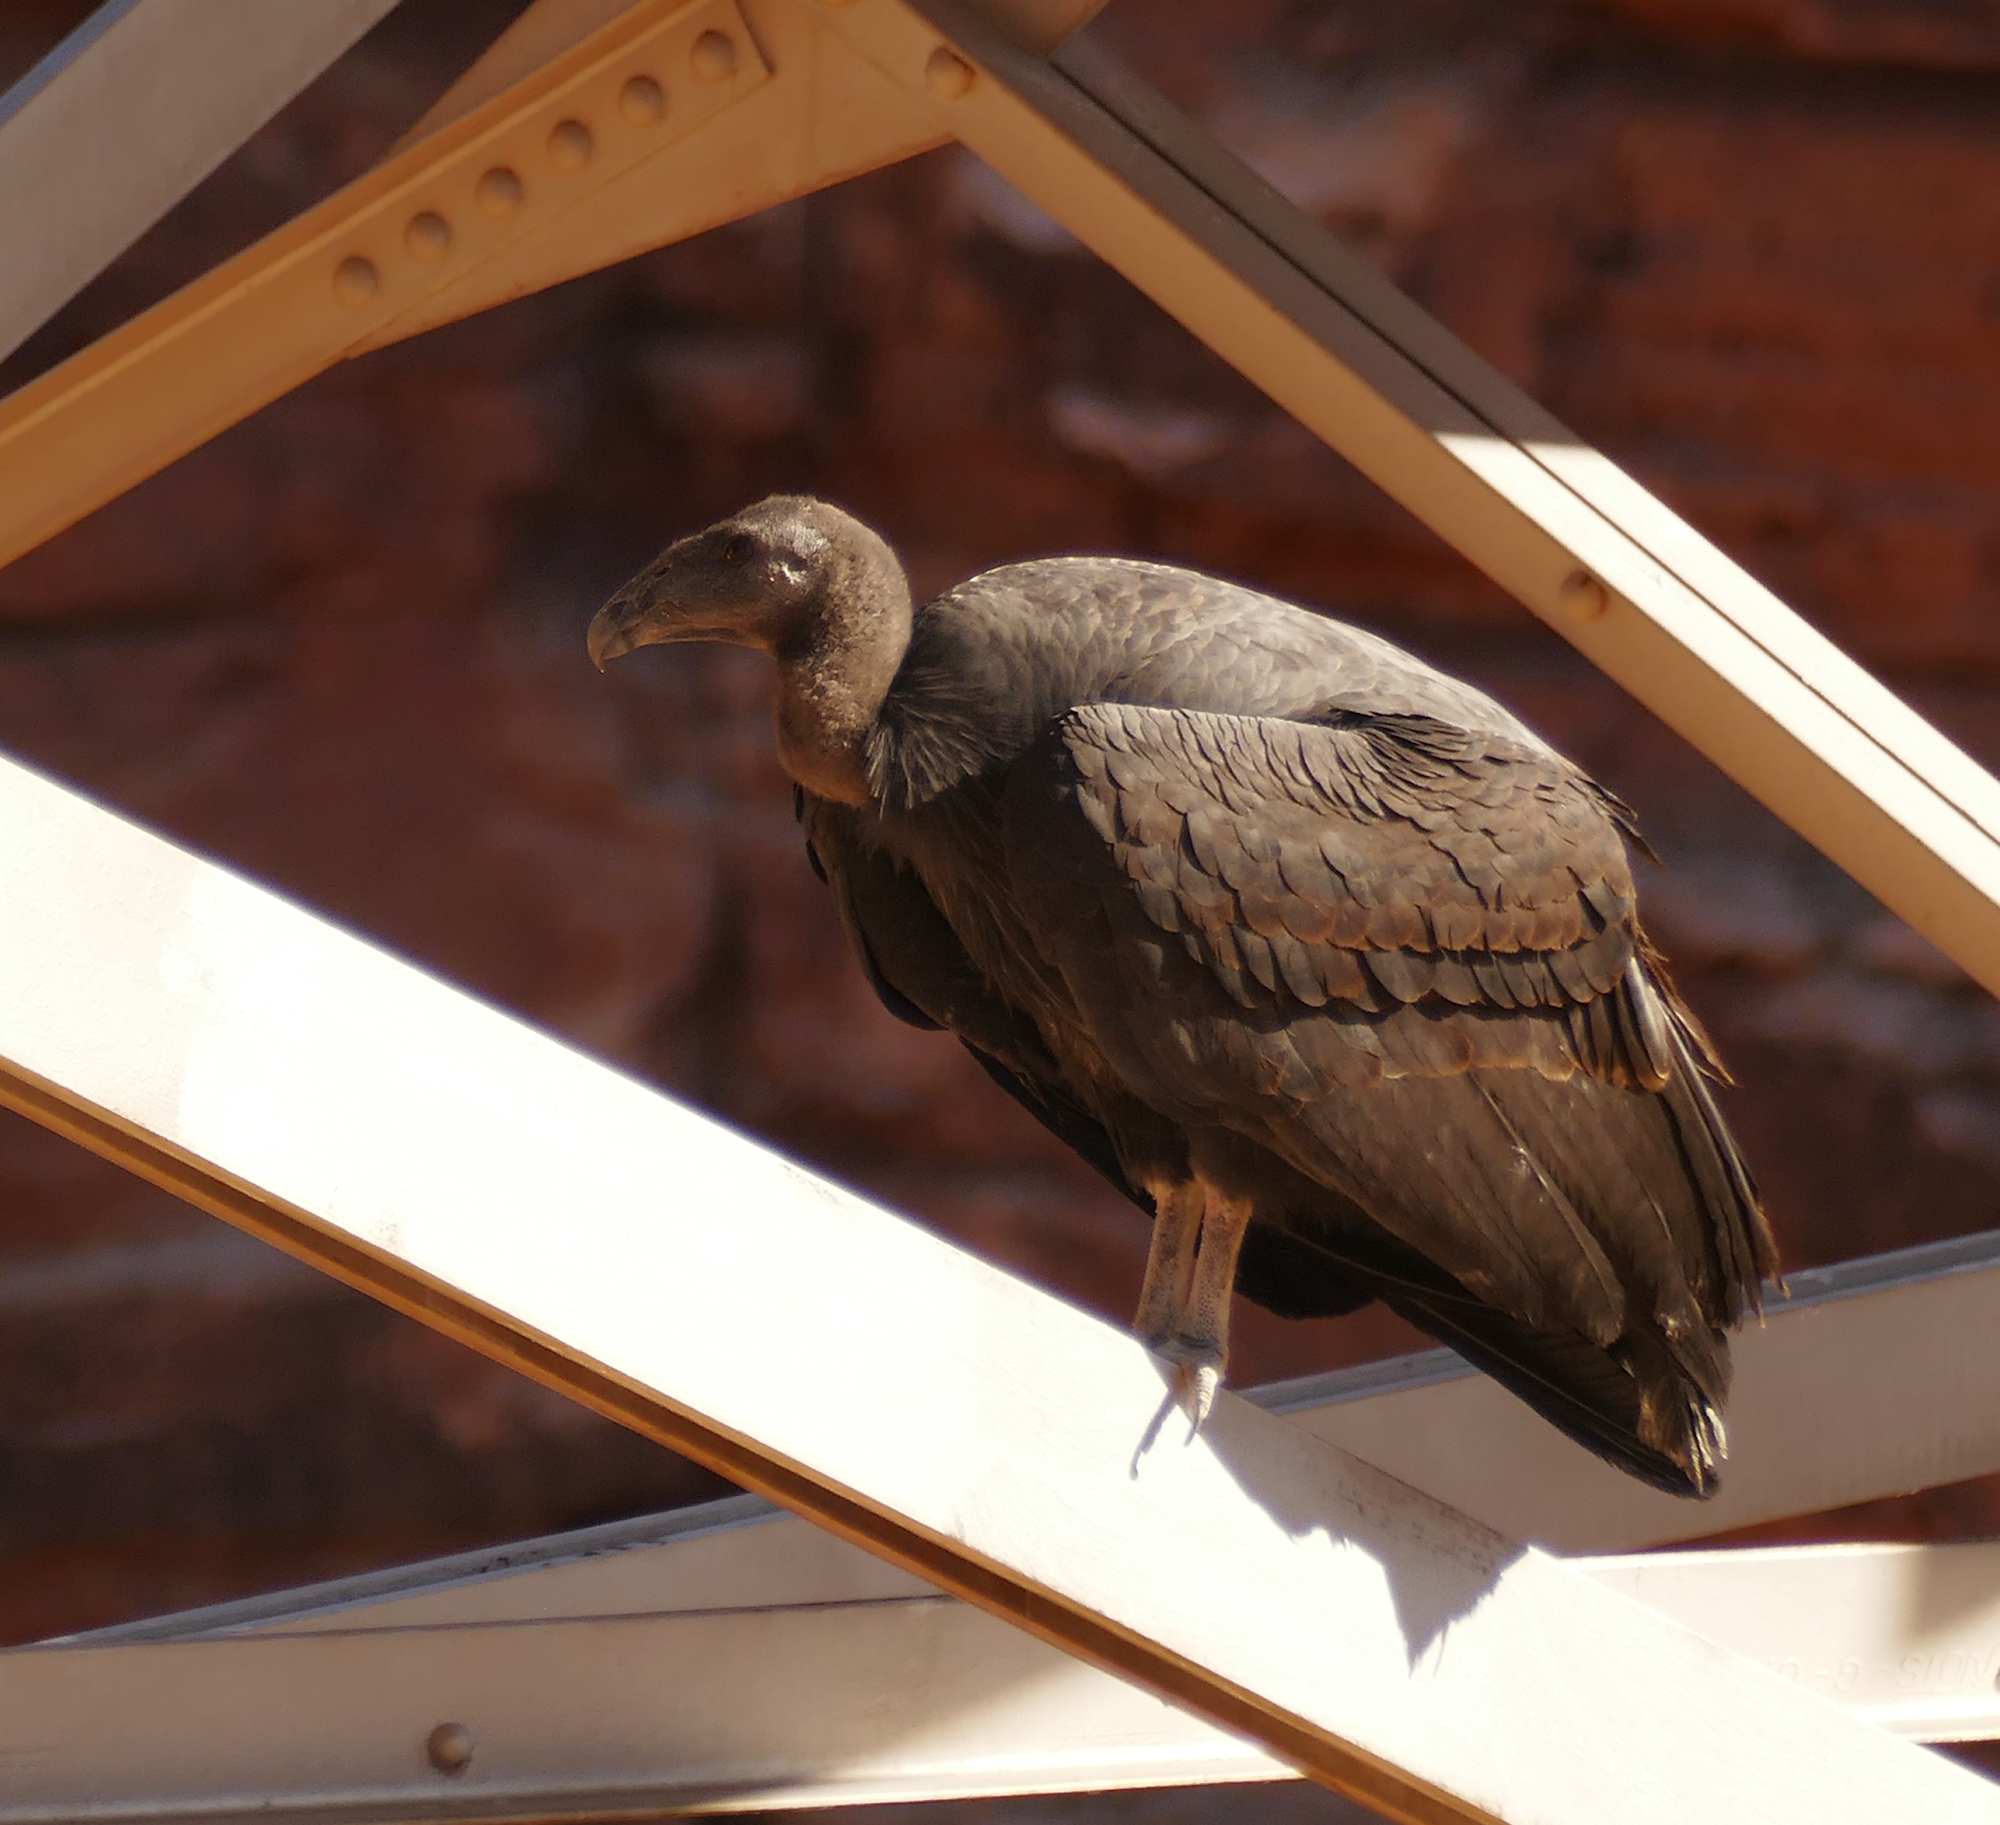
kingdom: Animalia
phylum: Chordata
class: Aves
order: Accipitriformes
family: Cathartidae
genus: Gymnogyps
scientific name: Gymnogyps californianus
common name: California condor
